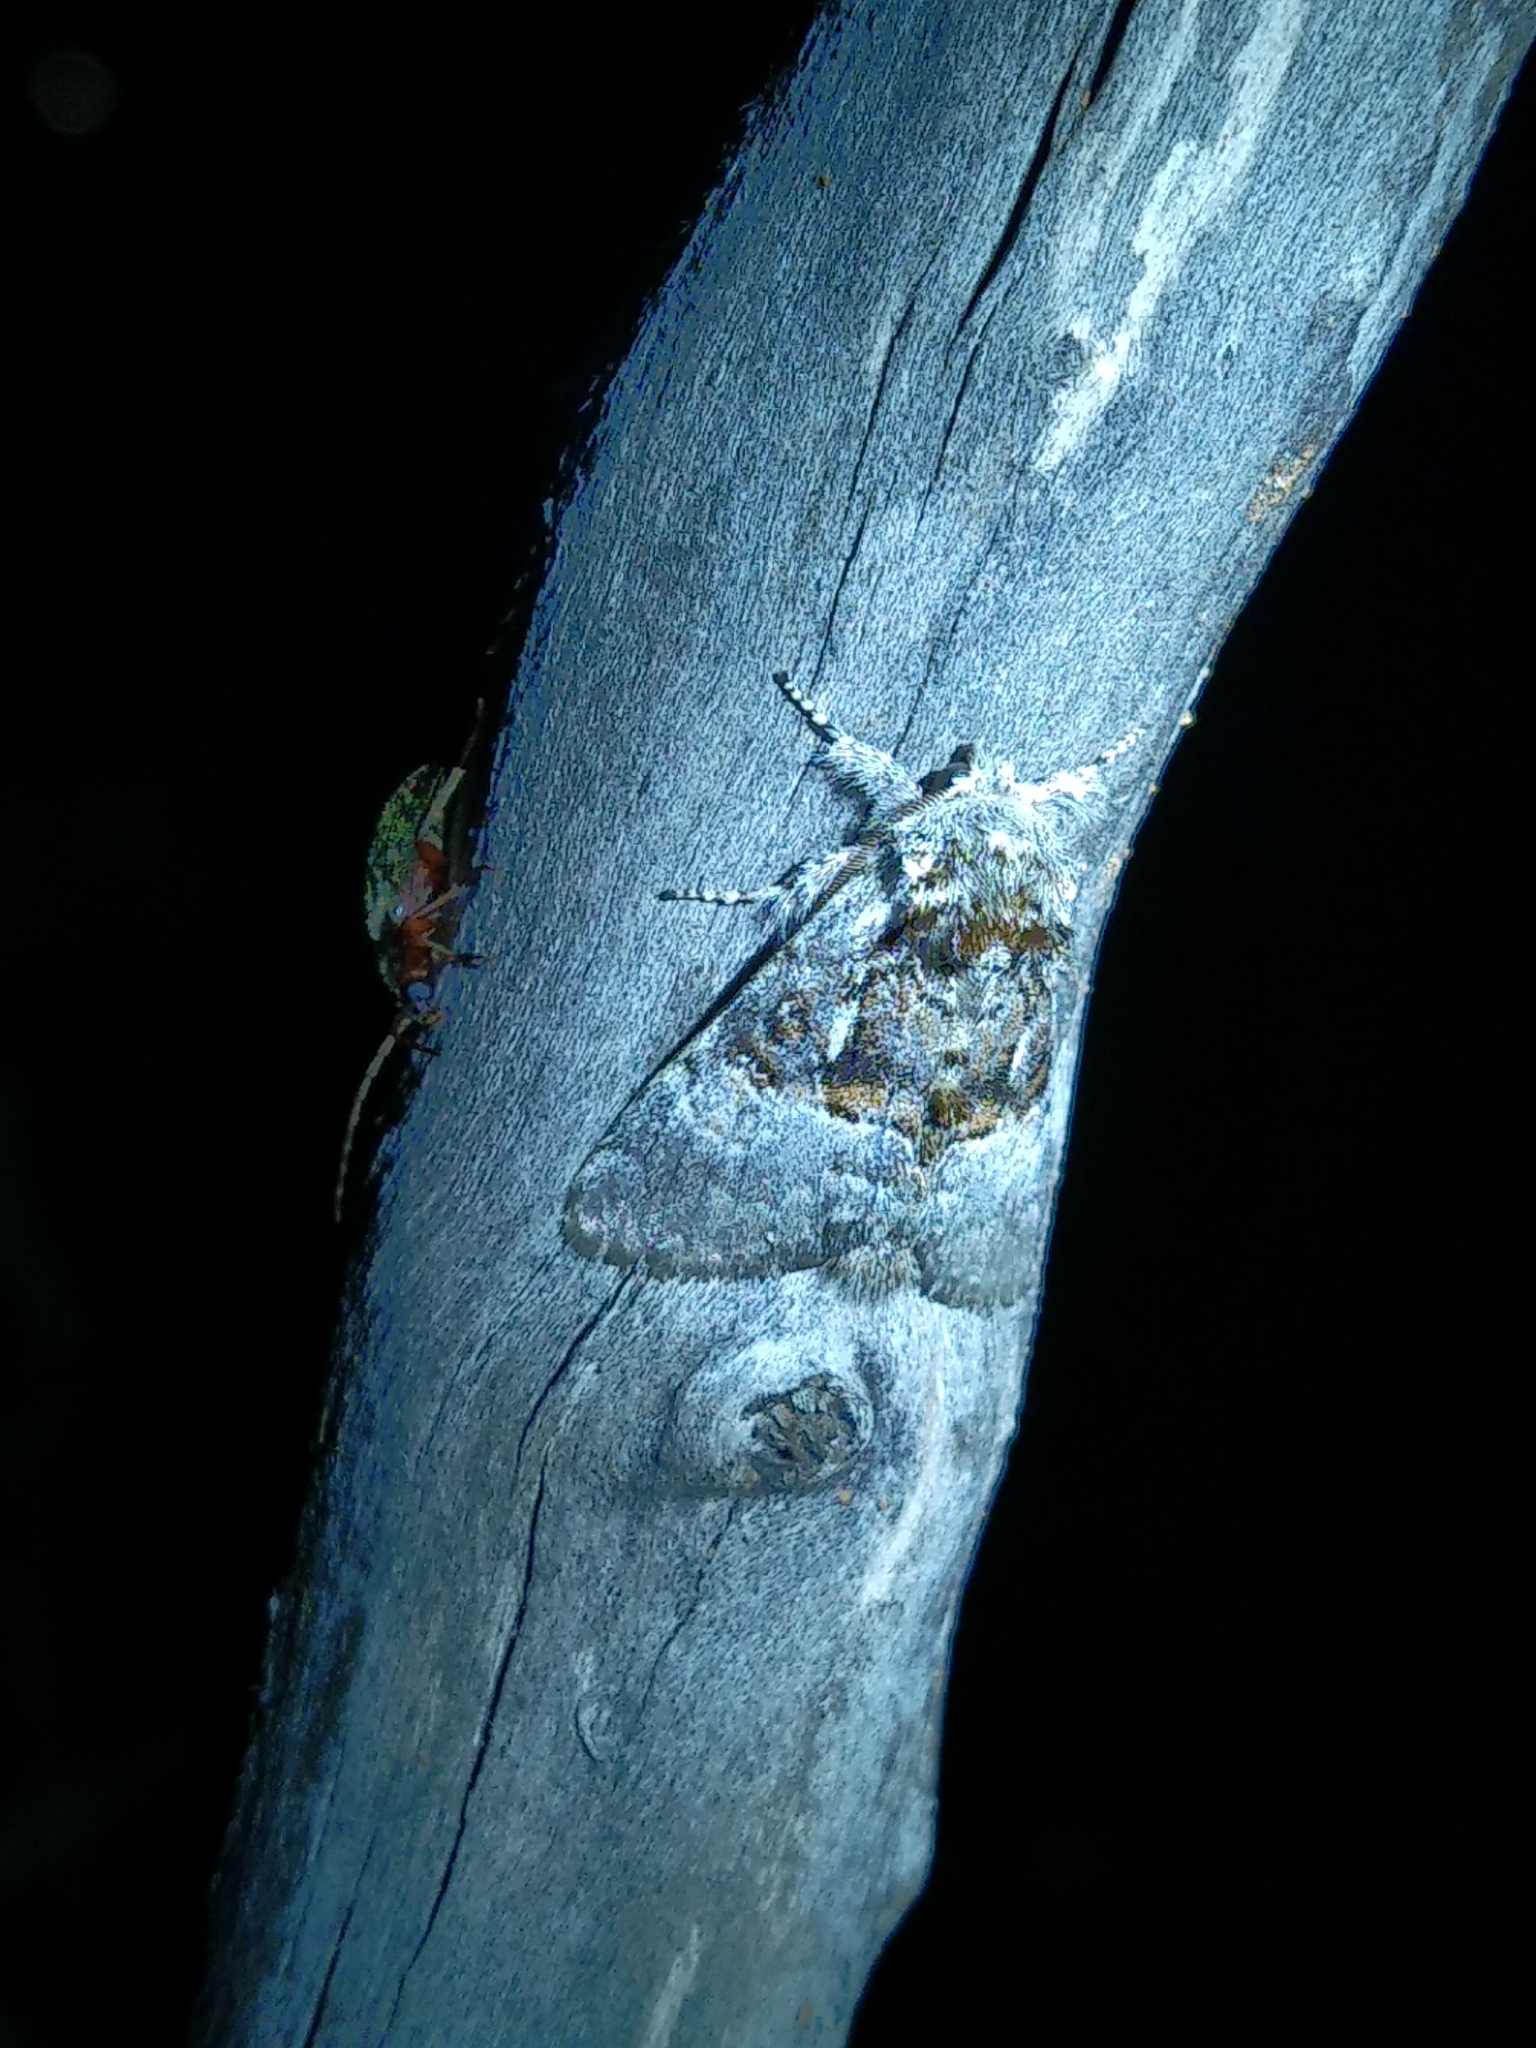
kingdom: Animalia
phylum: Arthropoda
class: Insecta
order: Lepidoptera
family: Noctuidae
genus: Colocasia
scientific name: Colocasia coryli
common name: Nut-tree tussock
